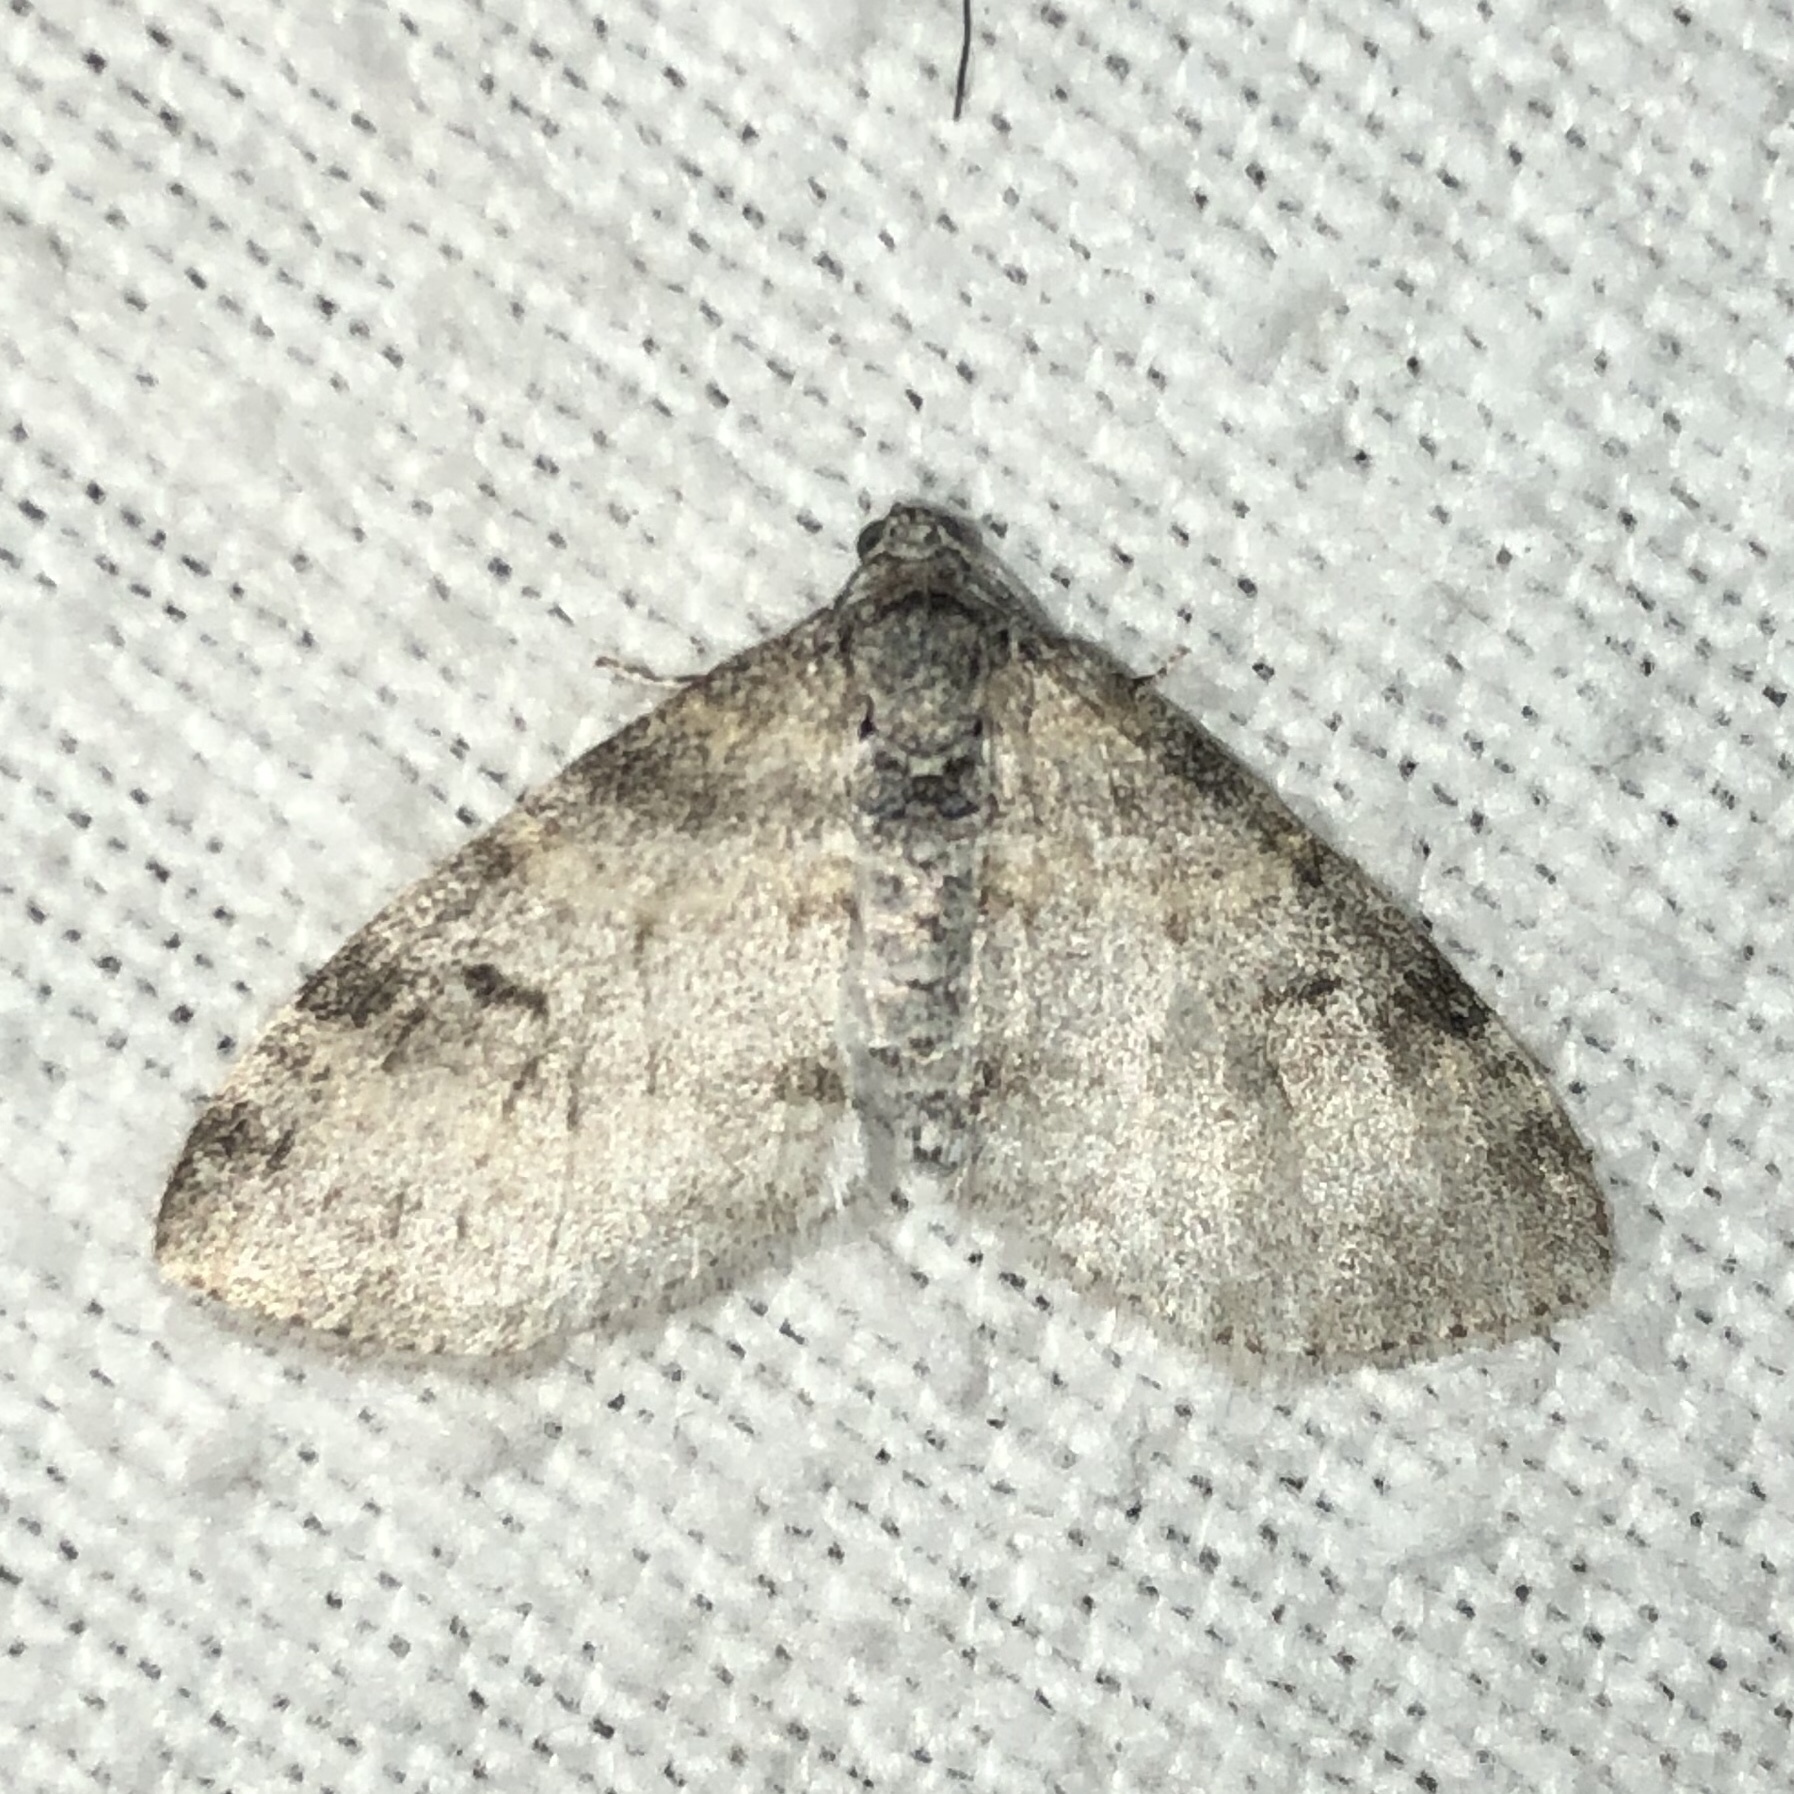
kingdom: Animalia
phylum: Arthropoda
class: Insecta
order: Lepidoptera
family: Geometridae
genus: Lobophora
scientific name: Lobophora nivigerata
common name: Powdered bigwing
